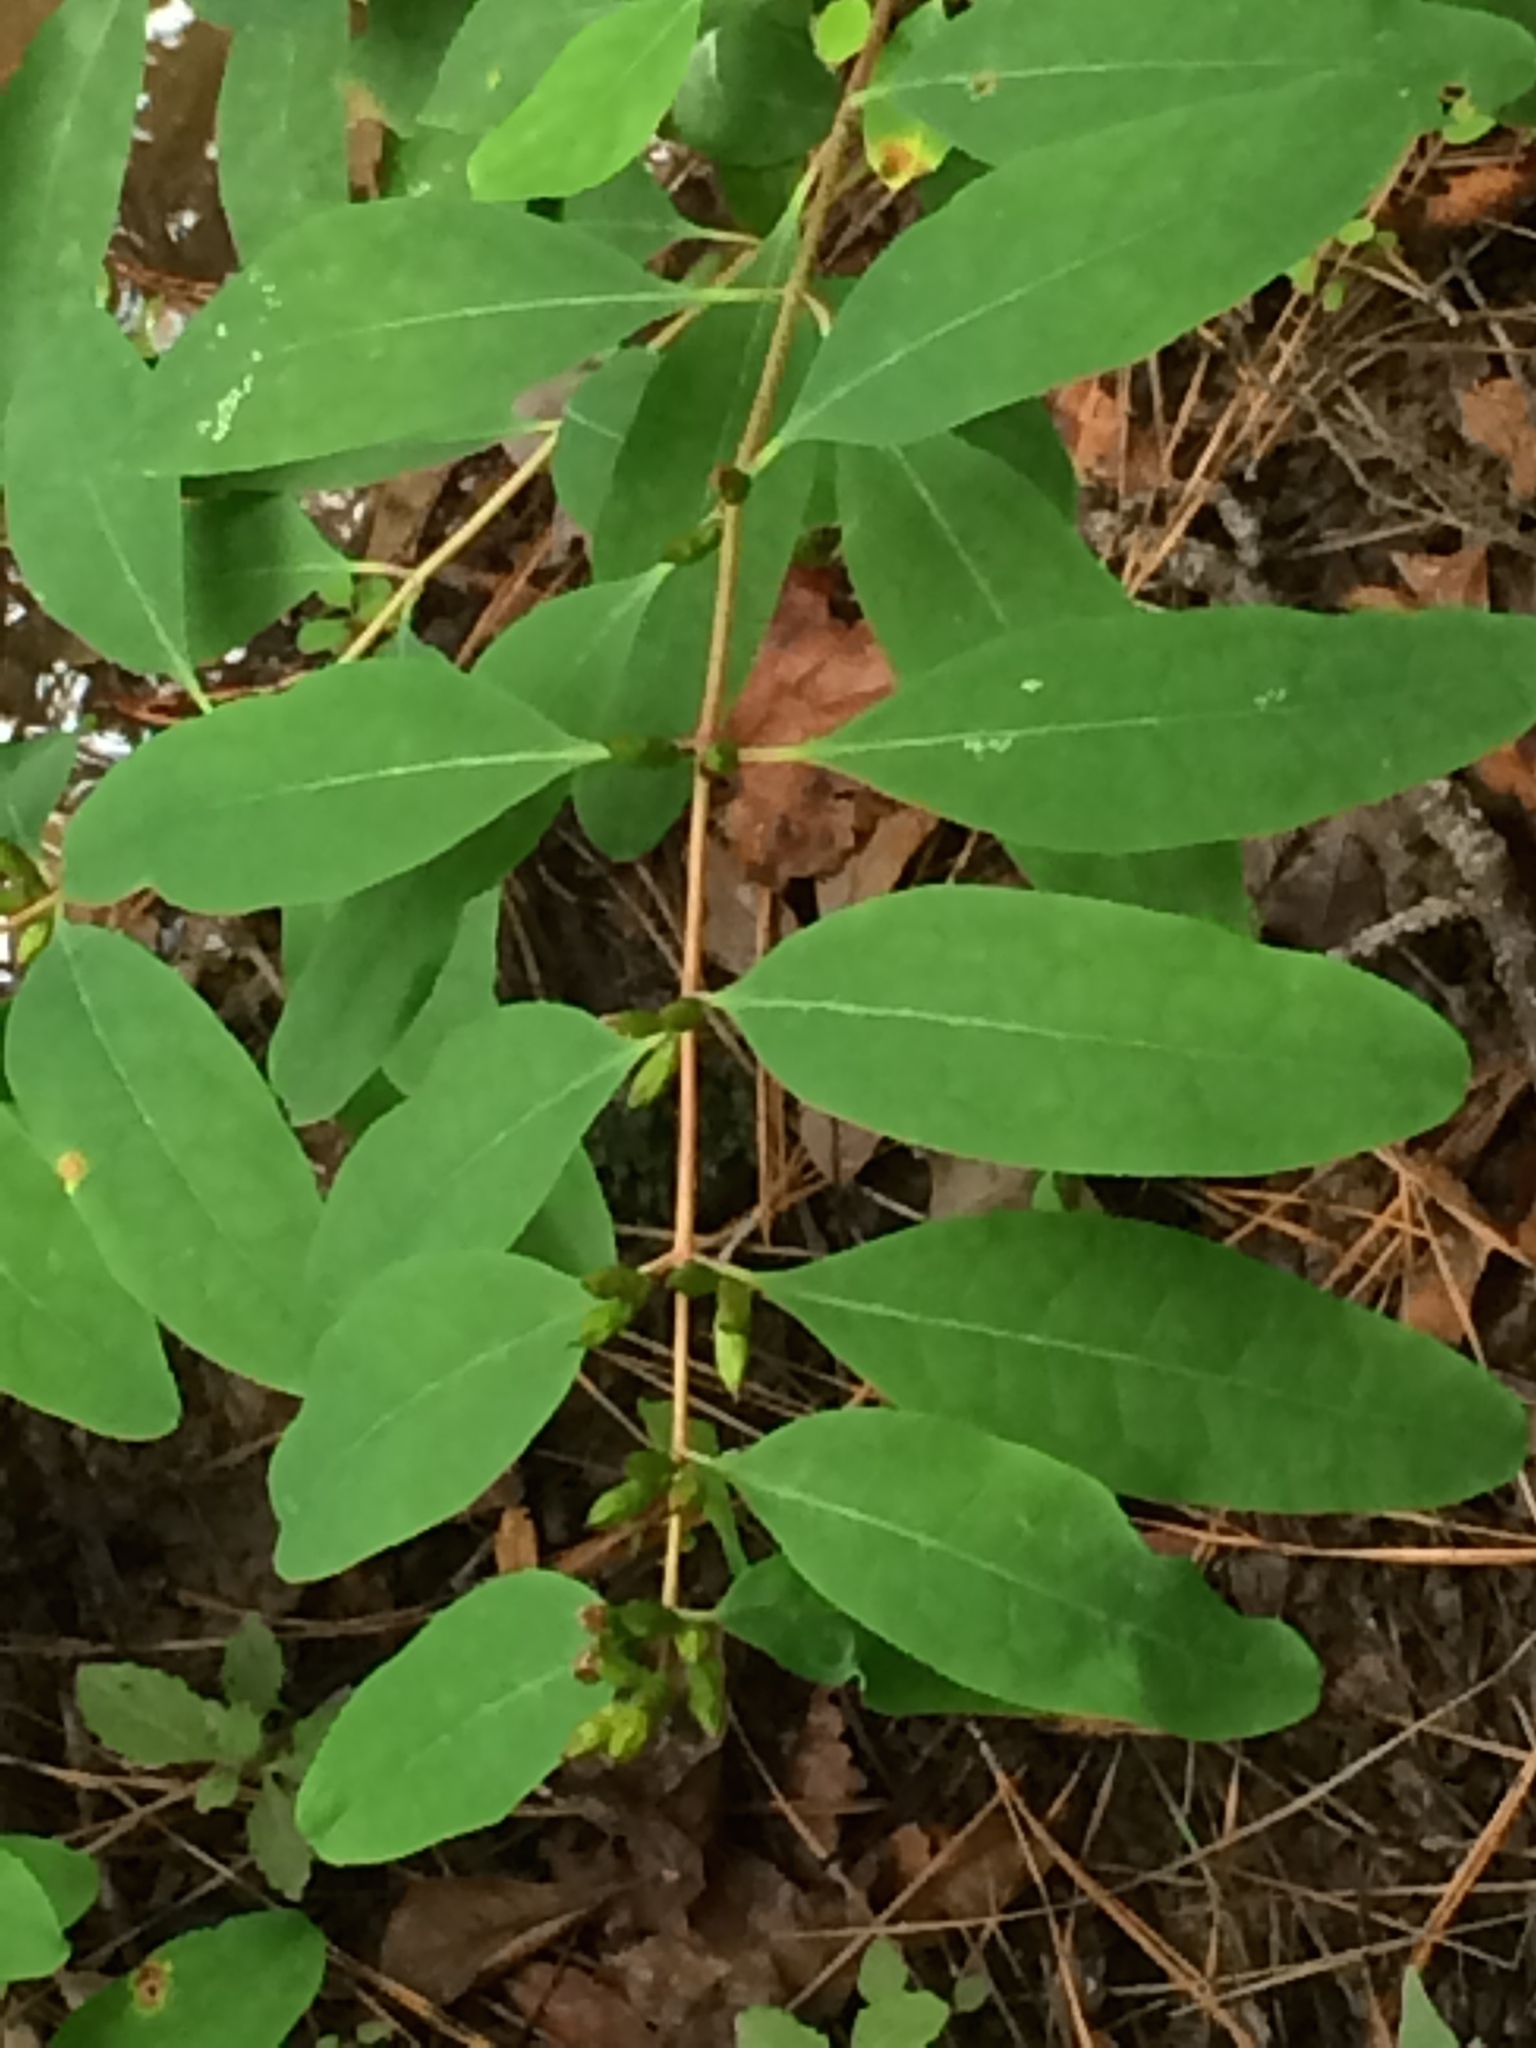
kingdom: Plantae
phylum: Tracheophyta
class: Magnoliopsida
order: Malpighiales
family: Hypericaceae
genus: Triadenum
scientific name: Triadenum walteri
